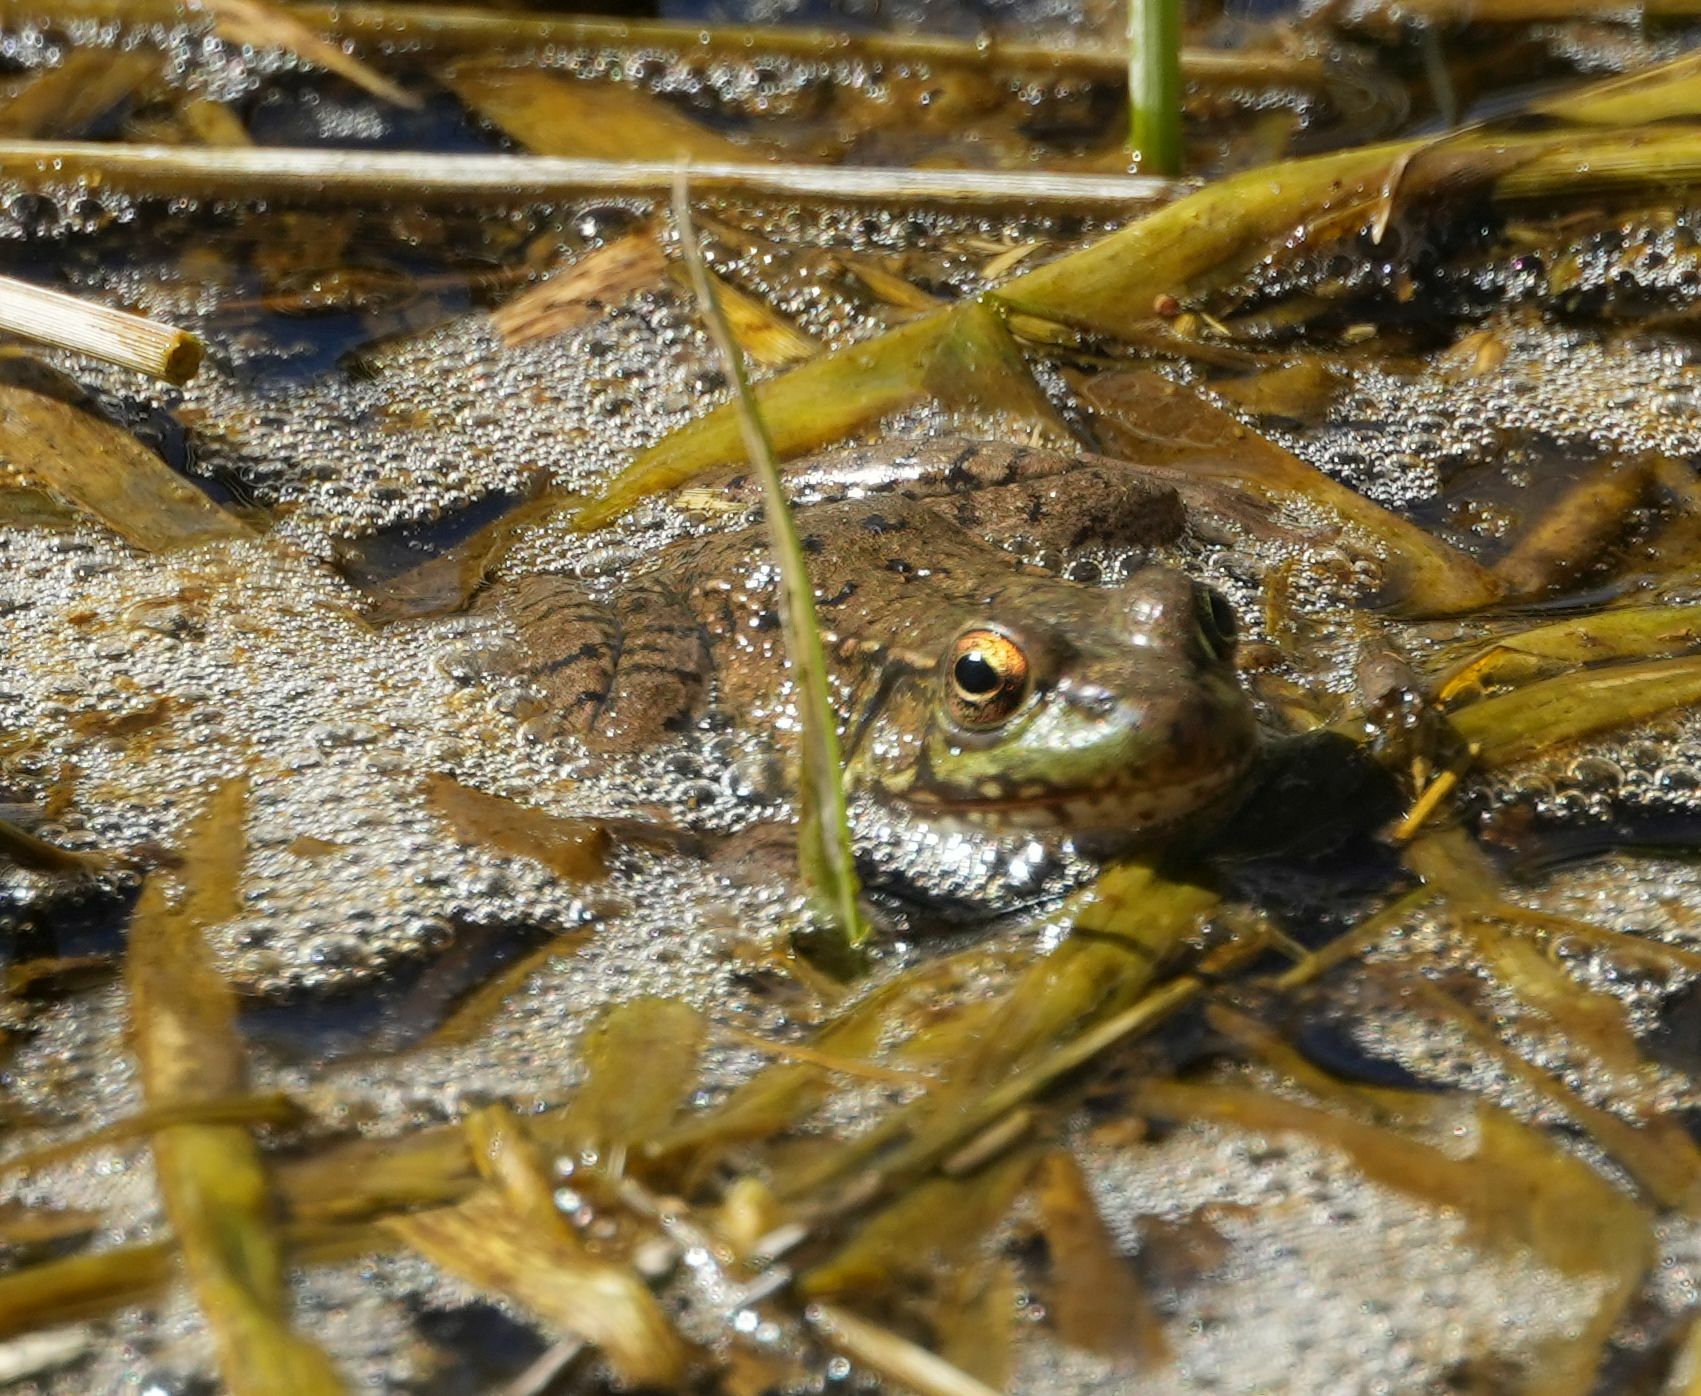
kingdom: Animalia
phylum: Chordata
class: Amphibia
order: Anura
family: Ranidae
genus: Lithobates
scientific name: Lithobates clamitans
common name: Green frog
